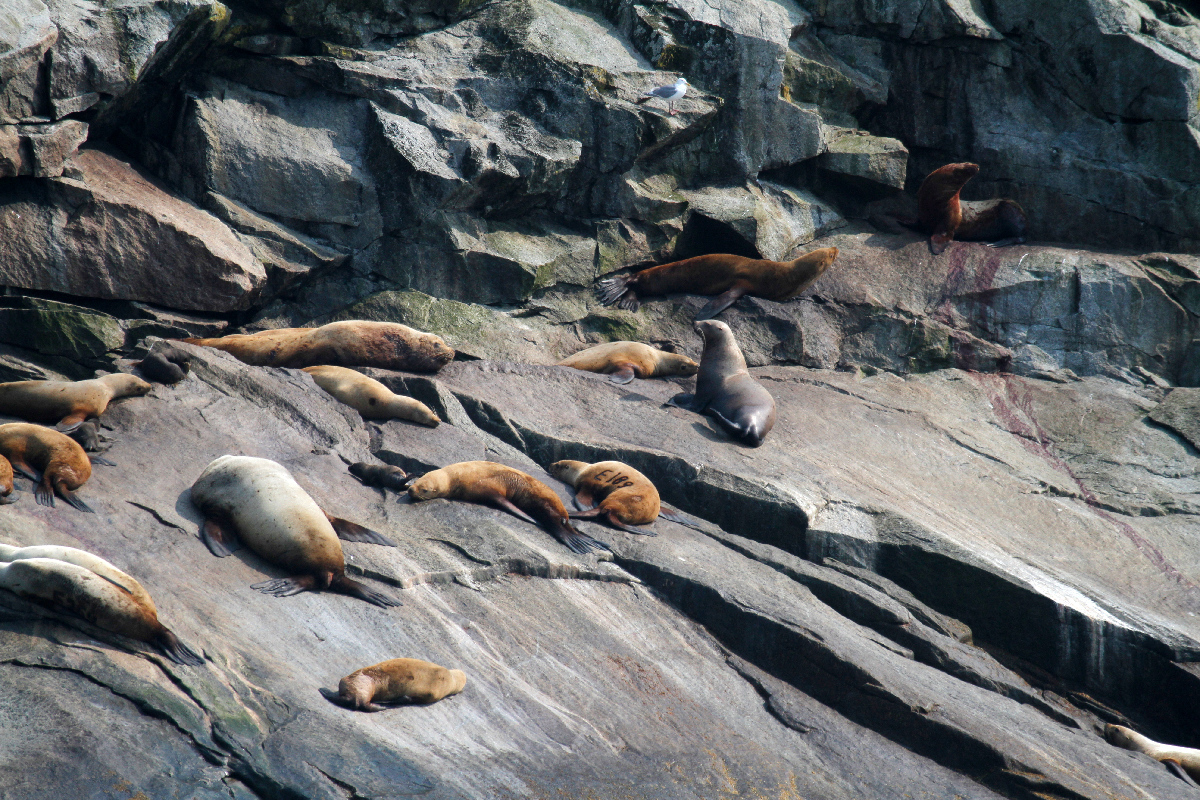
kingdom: Animalia
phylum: Chordata
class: Mammalia
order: Carnivora
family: Otariidae
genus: Eumetopias
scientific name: Eumetopias jubatus
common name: Steller sea lion
